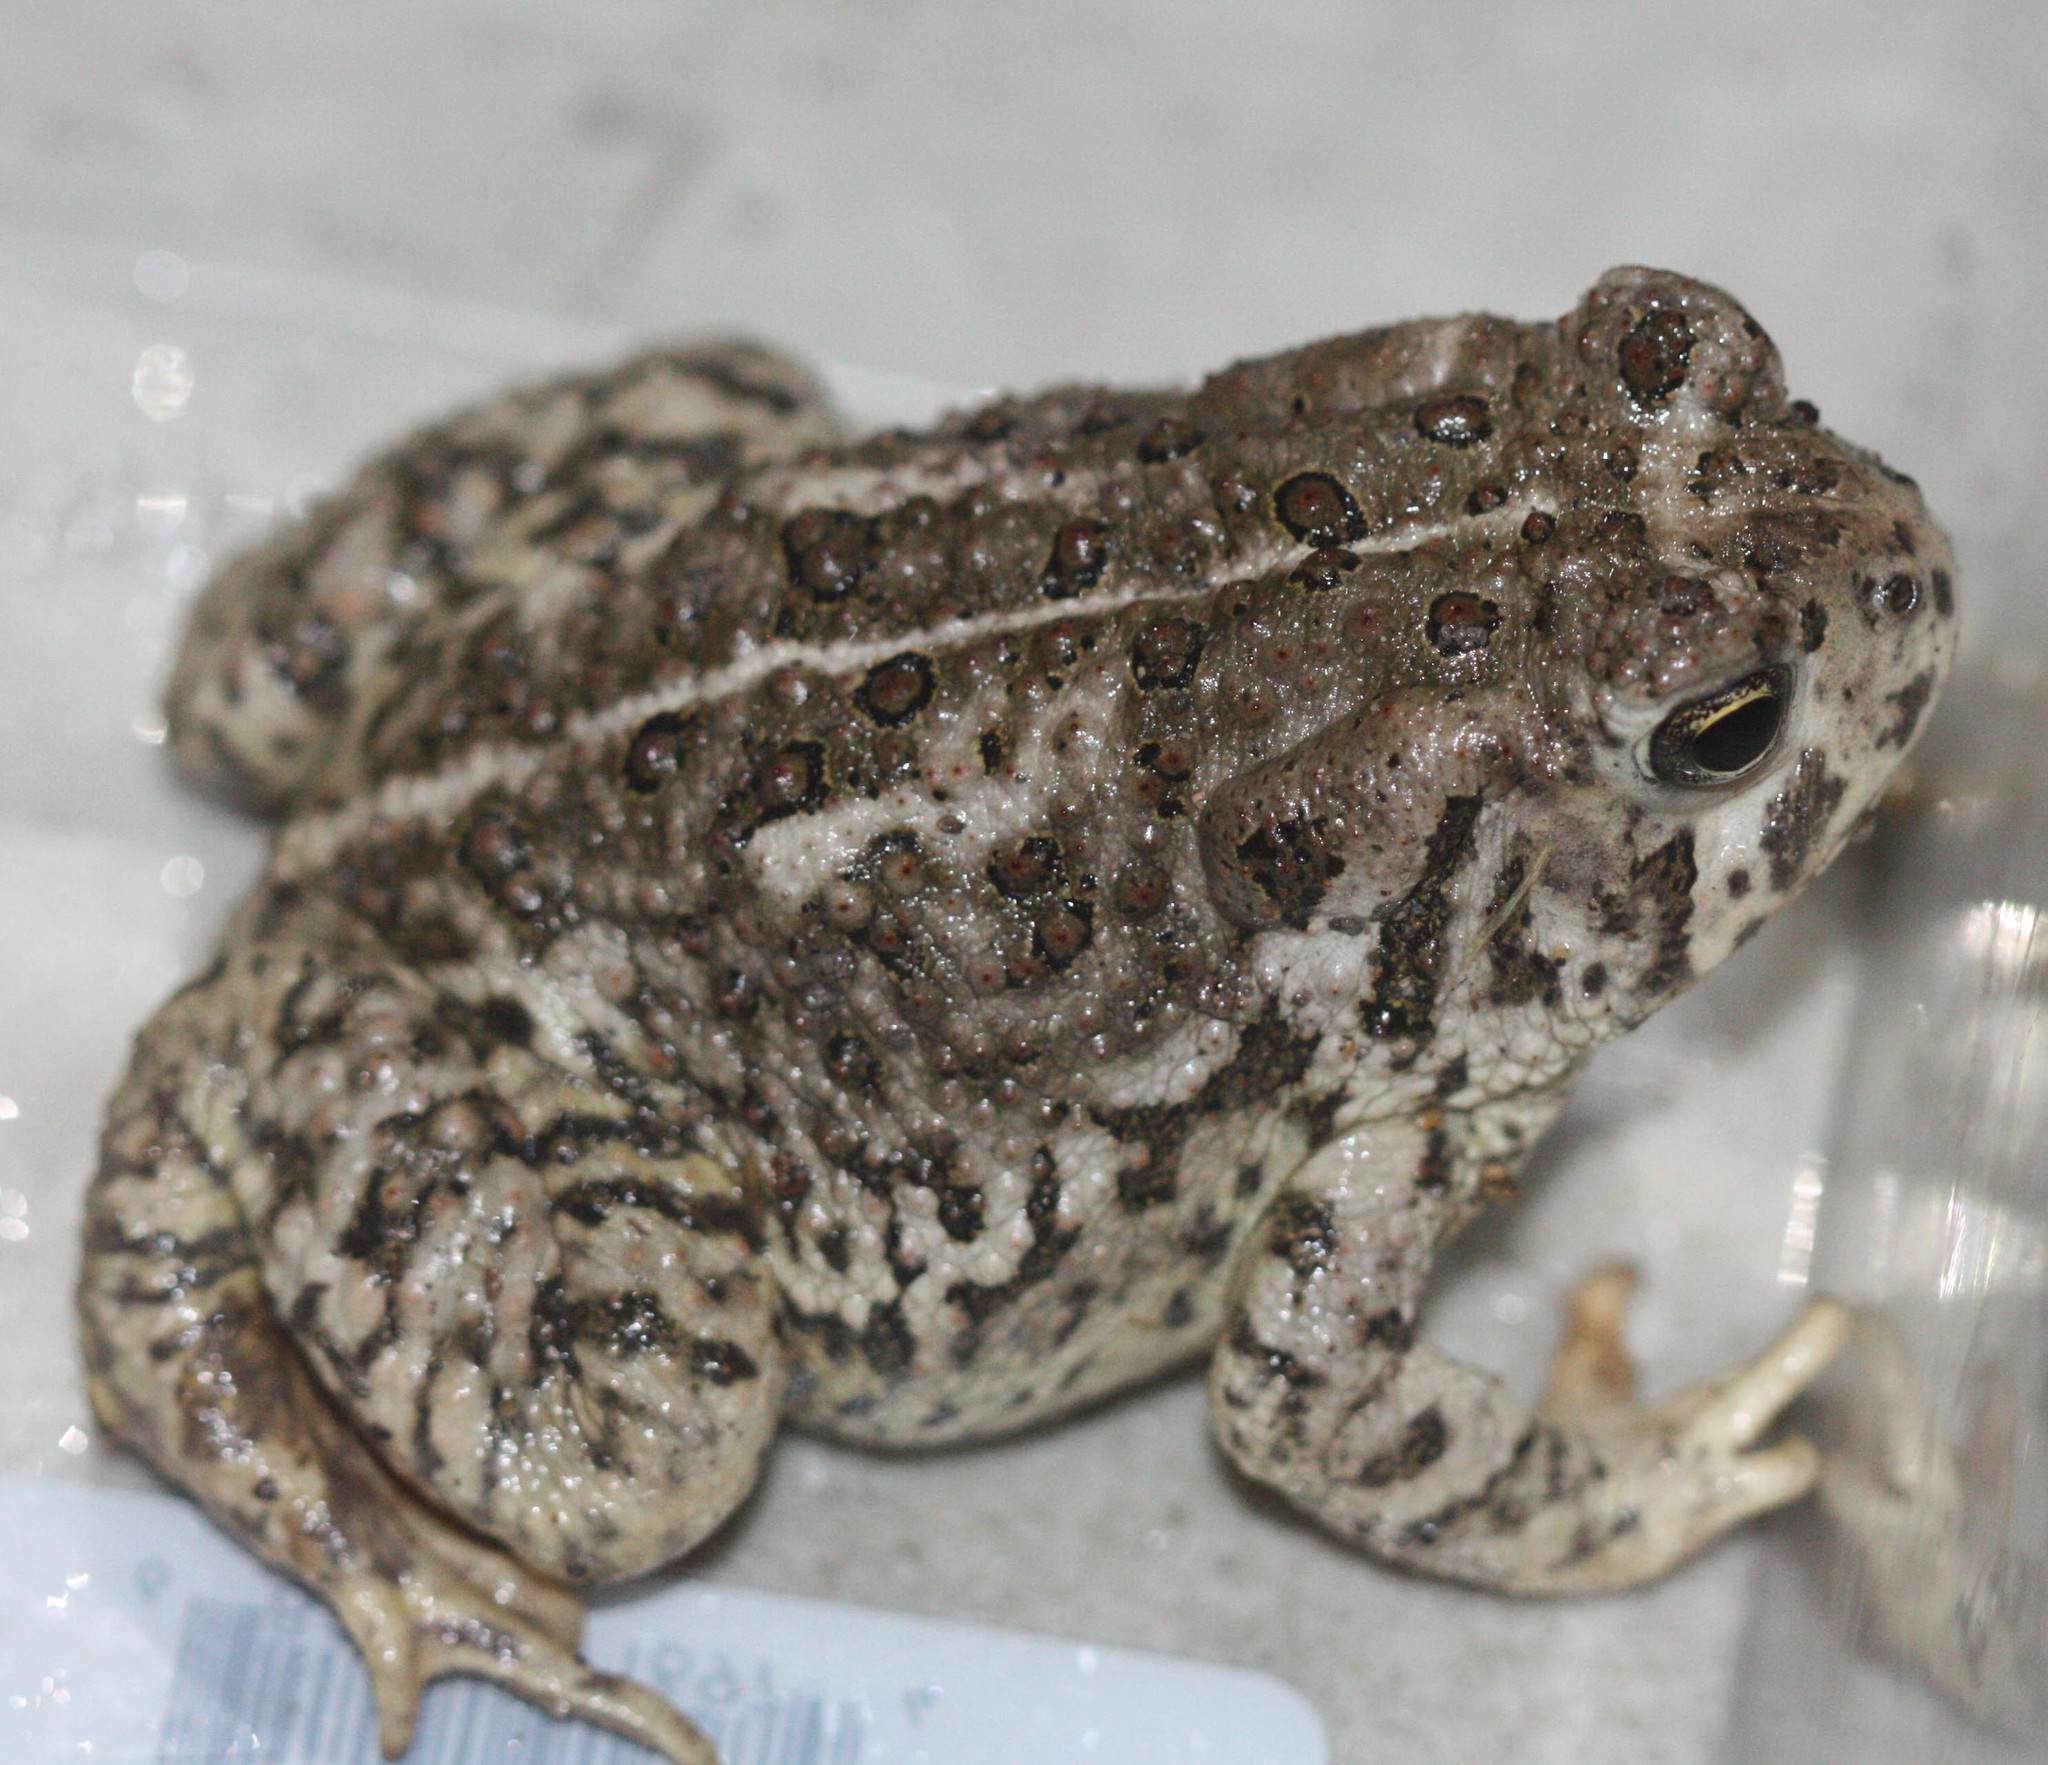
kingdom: Animalia
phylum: Chordata
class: Amphibia
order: Anura
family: Bufonidae
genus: Anaxyrus
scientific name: Anaxyrus woodhousii
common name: Woodhouse's toad
